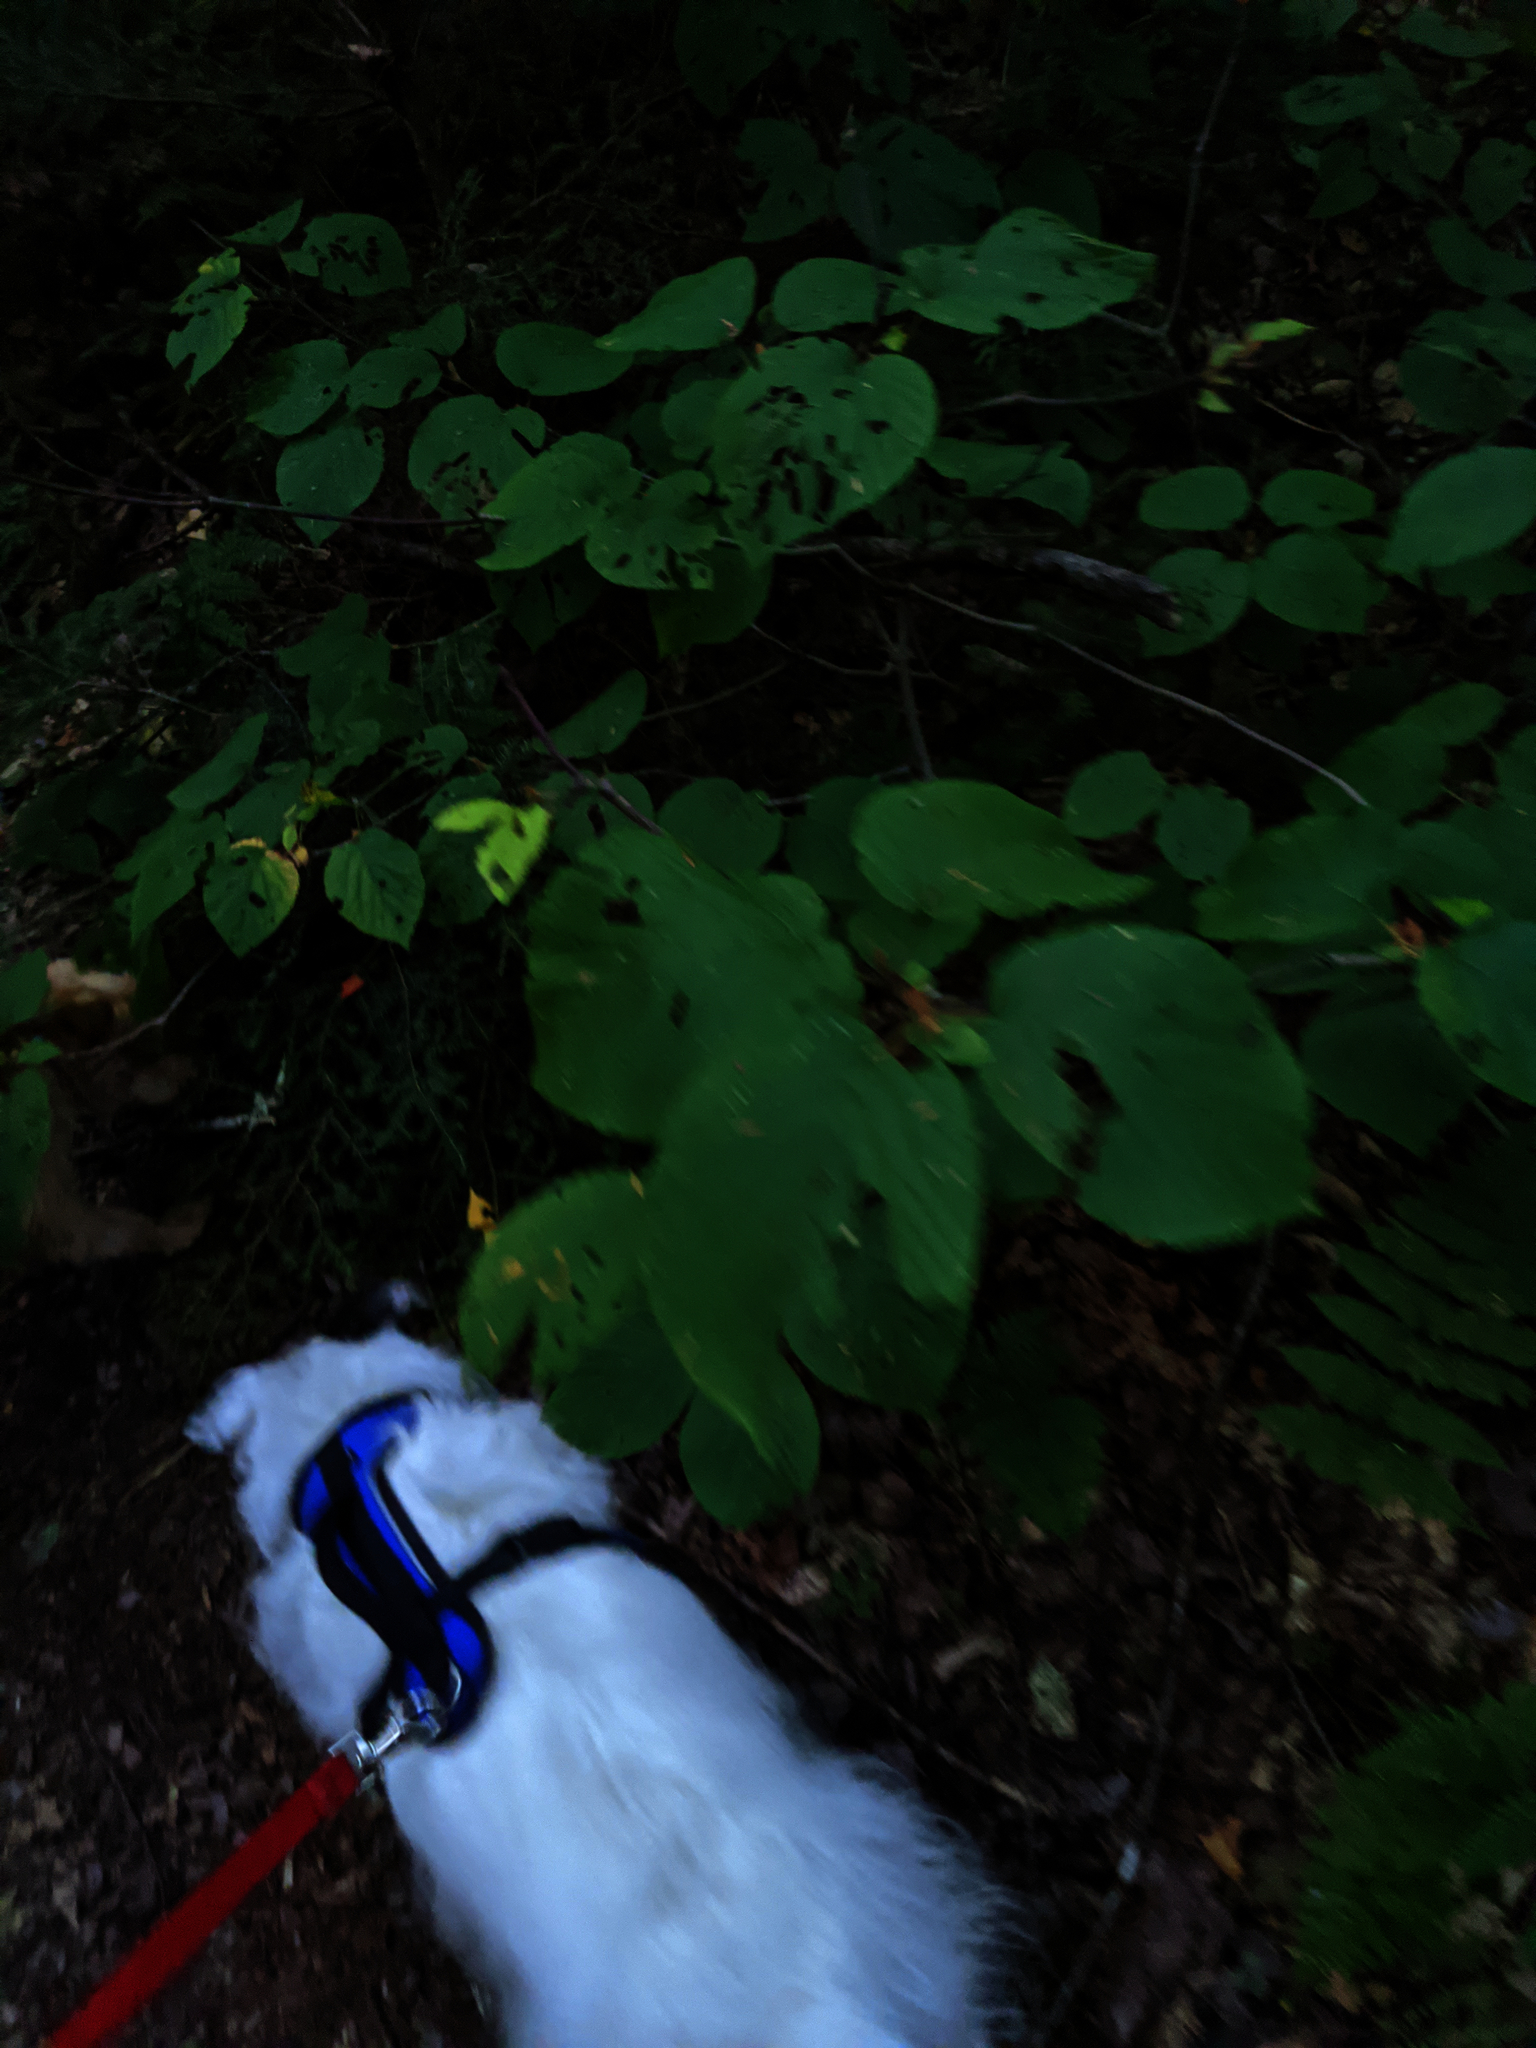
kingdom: Plantae
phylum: Tracheophyta
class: Magnoliopsida
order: Dipsacales
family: Viburnaceae
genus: Viburnum
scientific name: Viburnum lantanoides
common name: Hobblebush
